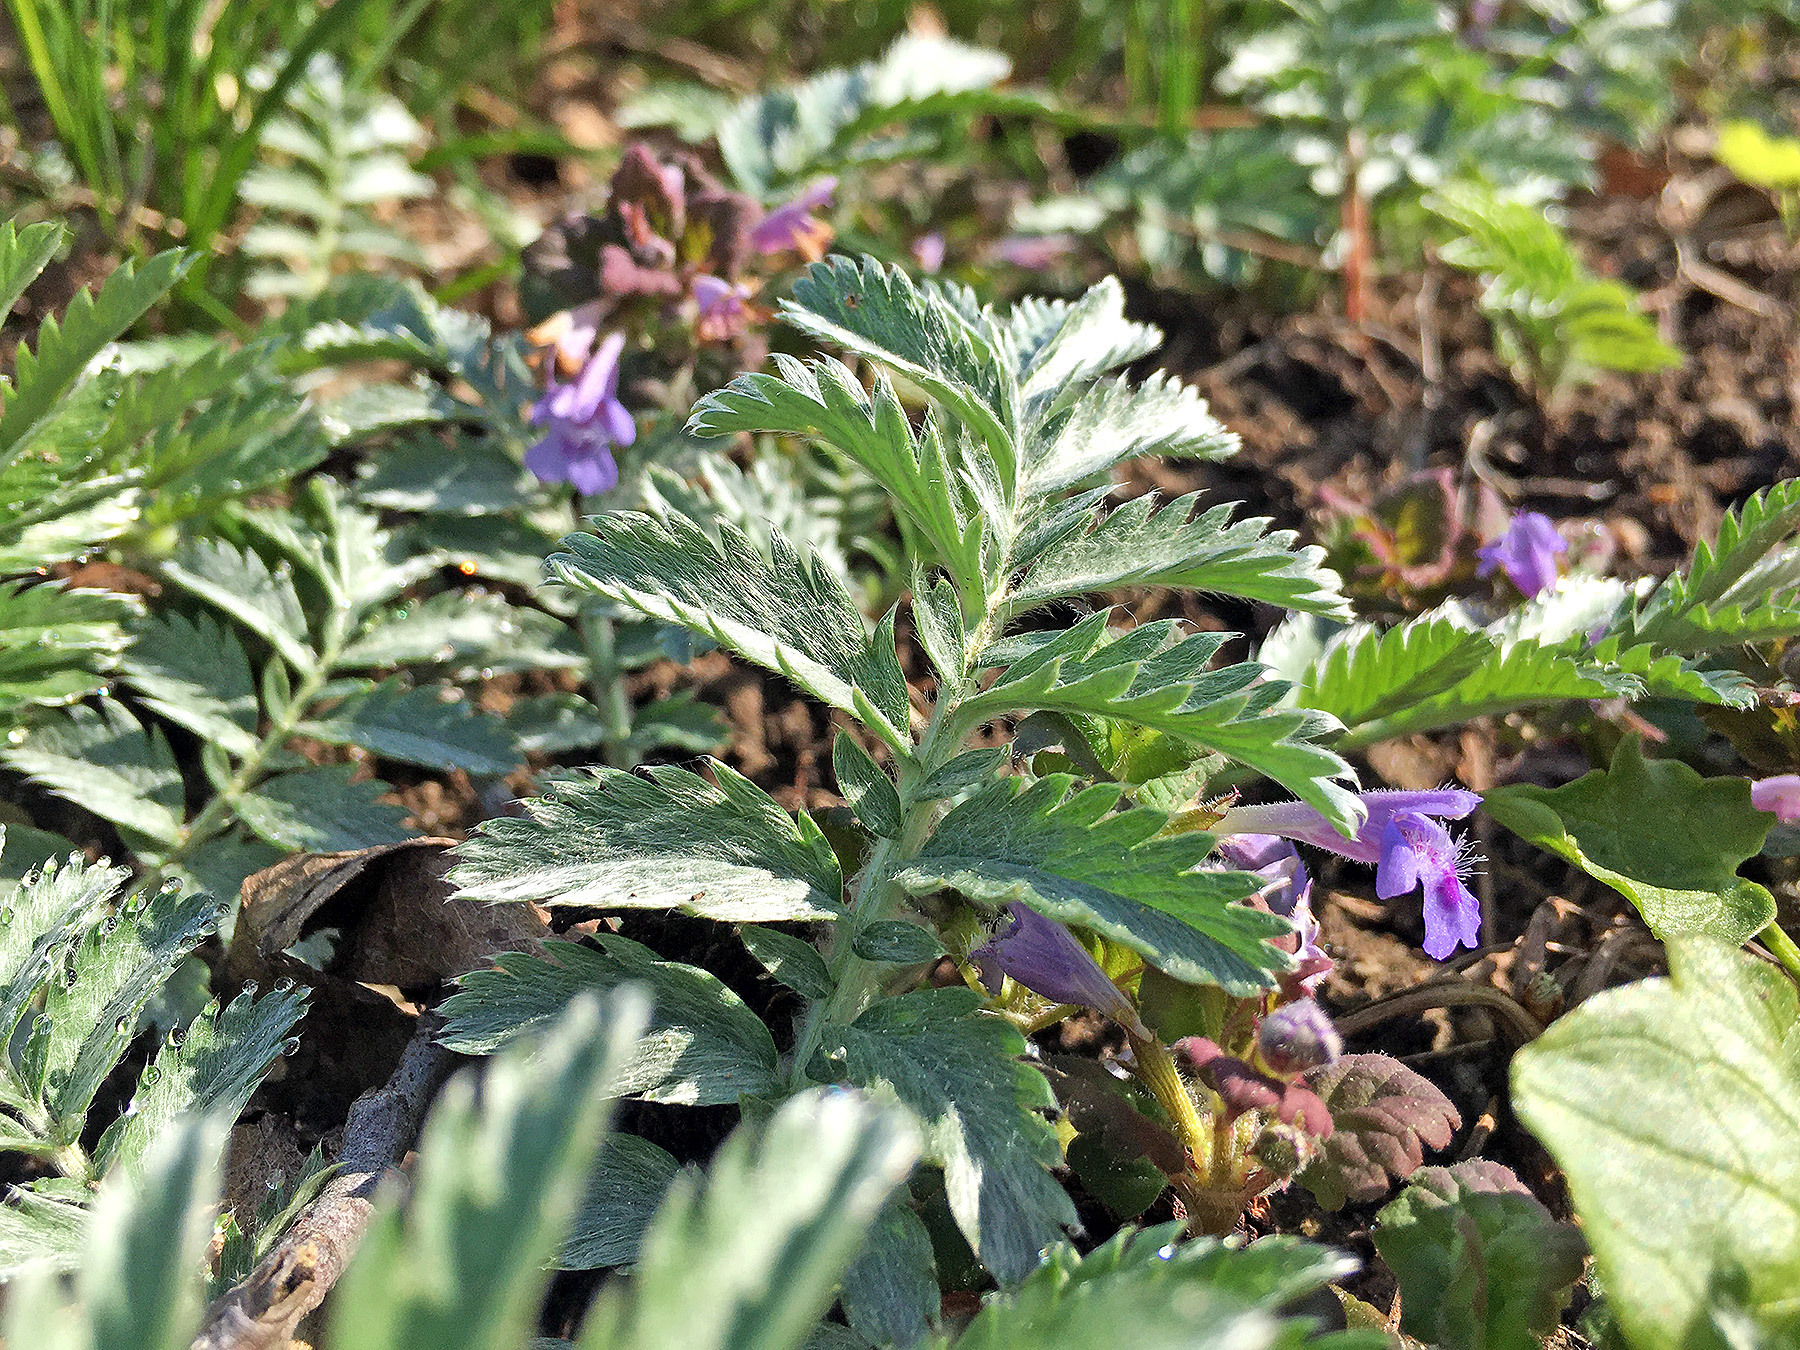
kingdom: Plantae
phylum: Tracheophyta
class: Magnoliopsida
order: Rosales
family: Rosaceae
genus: Argentina
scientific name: Argentina anserina
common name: Common silverweed
